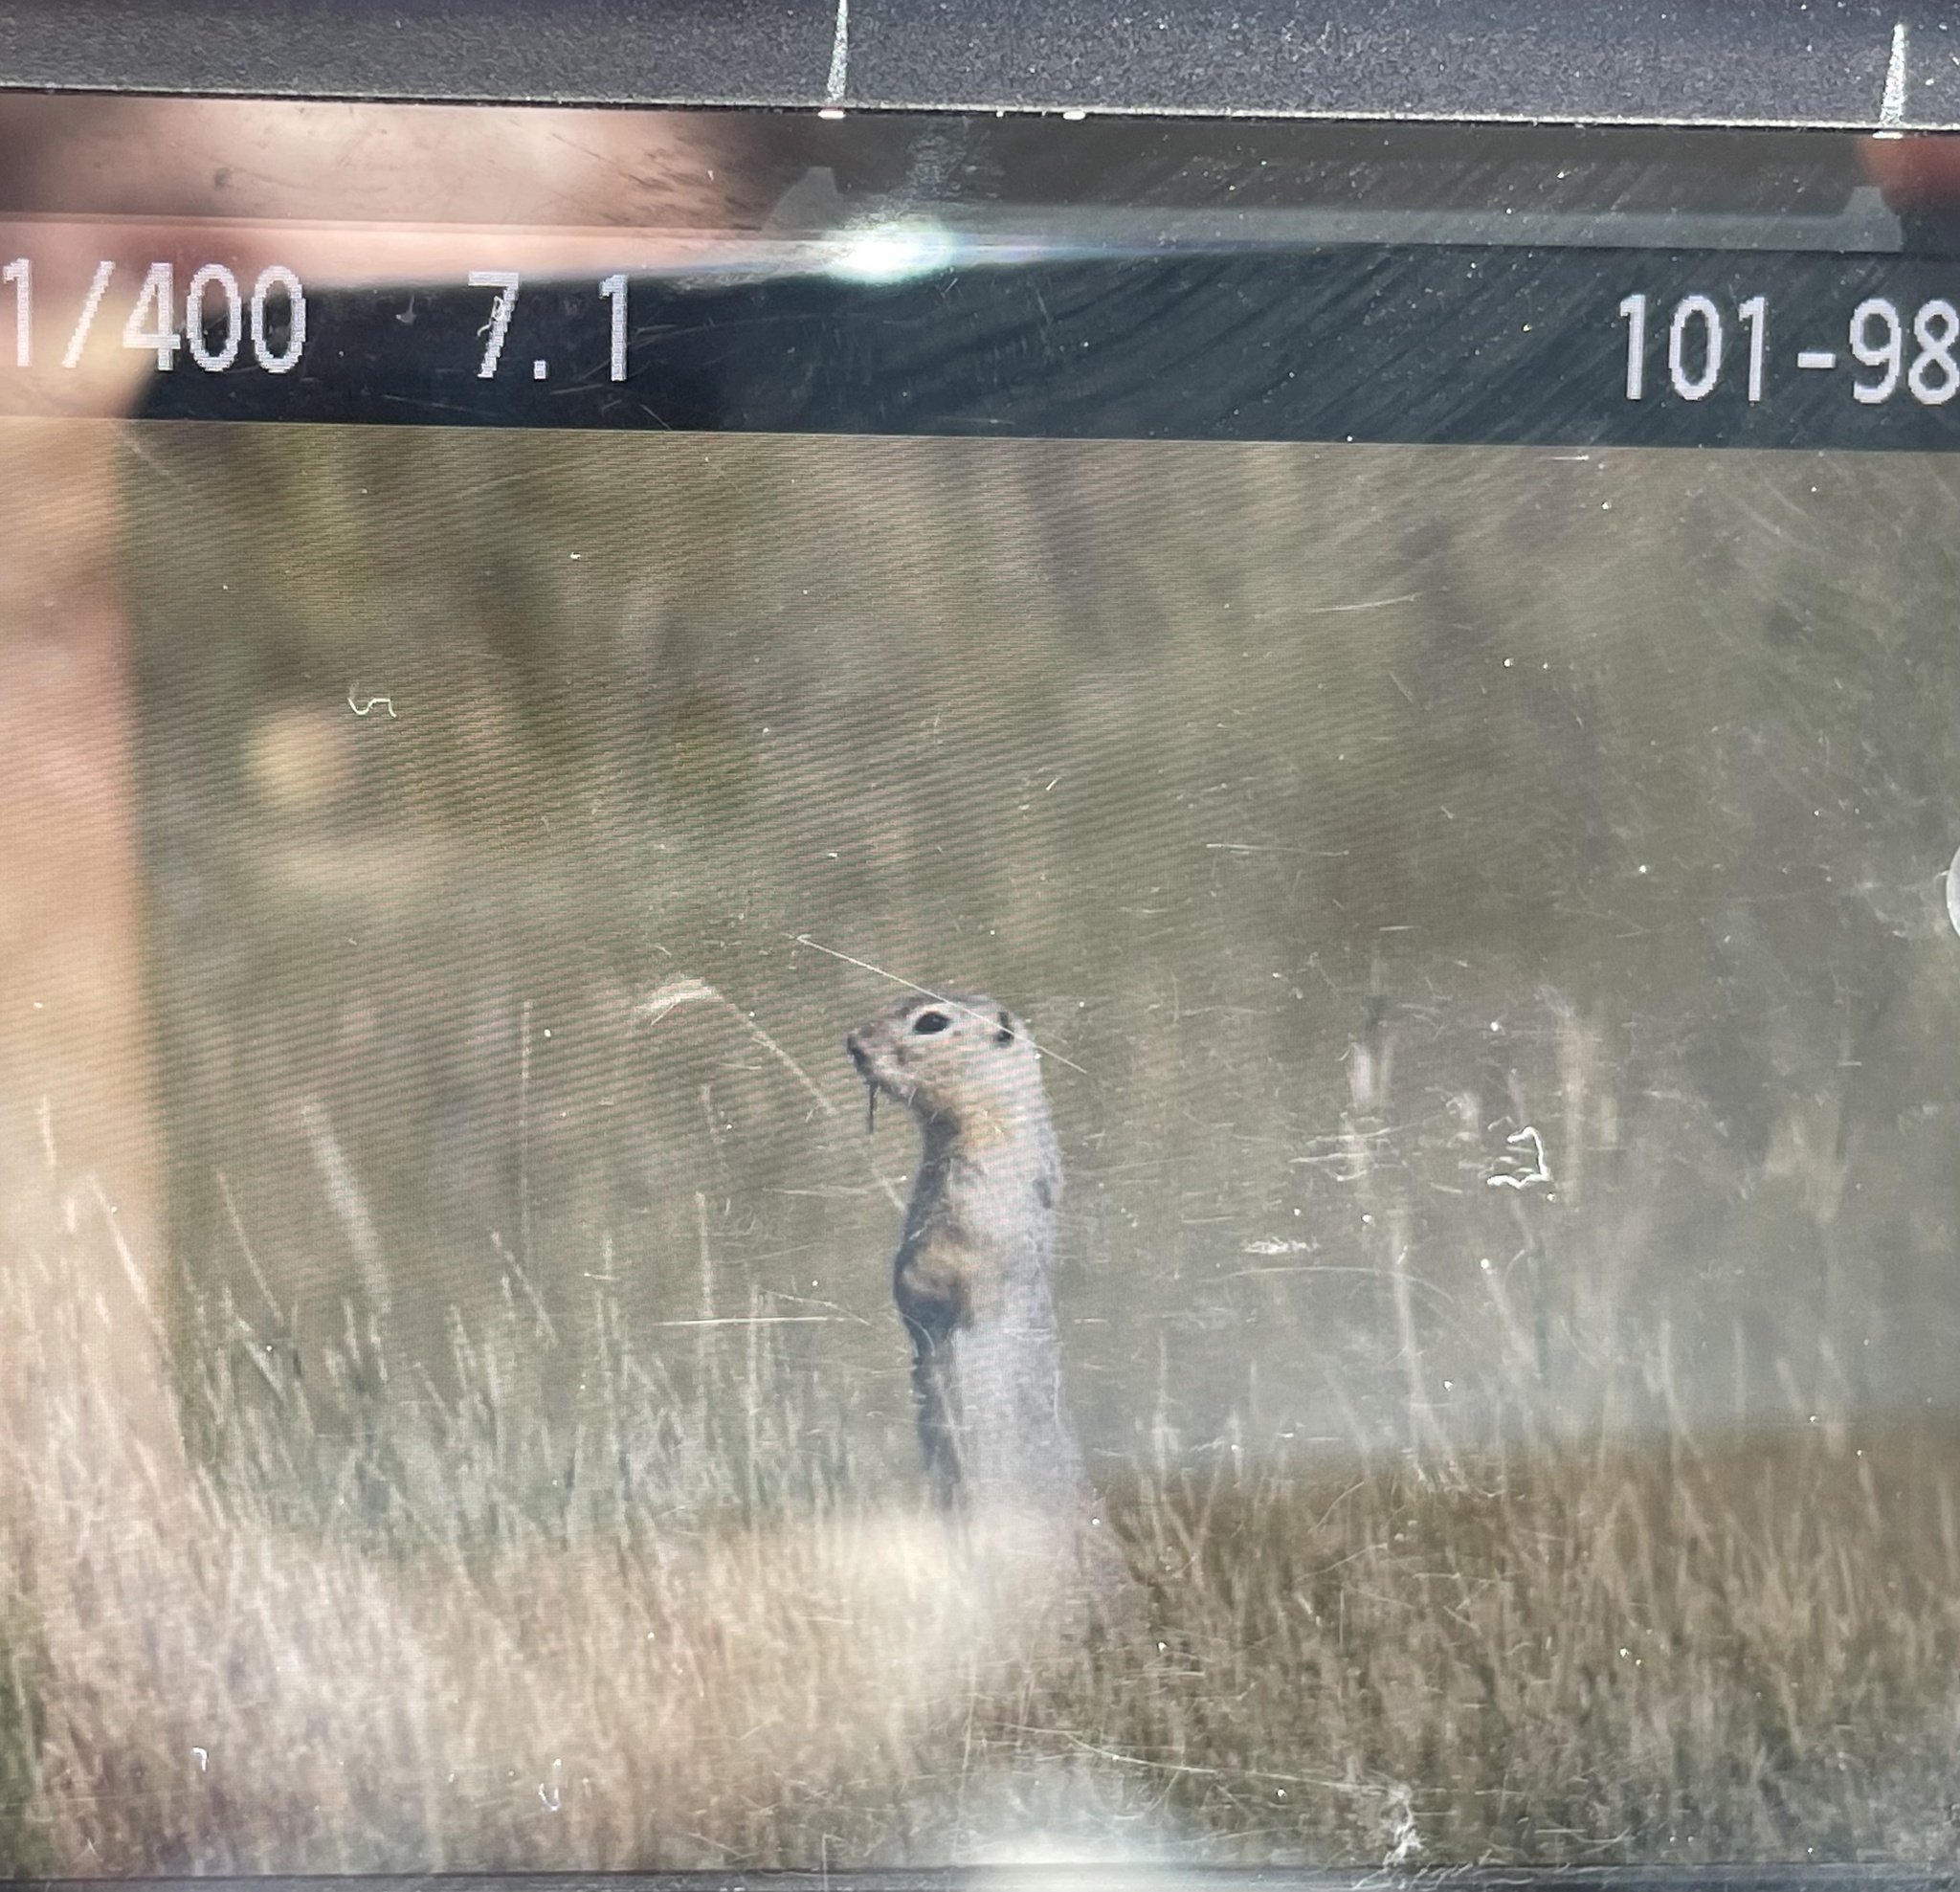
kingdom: Animalia
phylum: Chordata
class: Mammalia
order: Rodentia
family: Sciuridae
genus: Urocitellus
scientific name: Urocitellus richardsonii
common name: Richardson's ground squirrel
